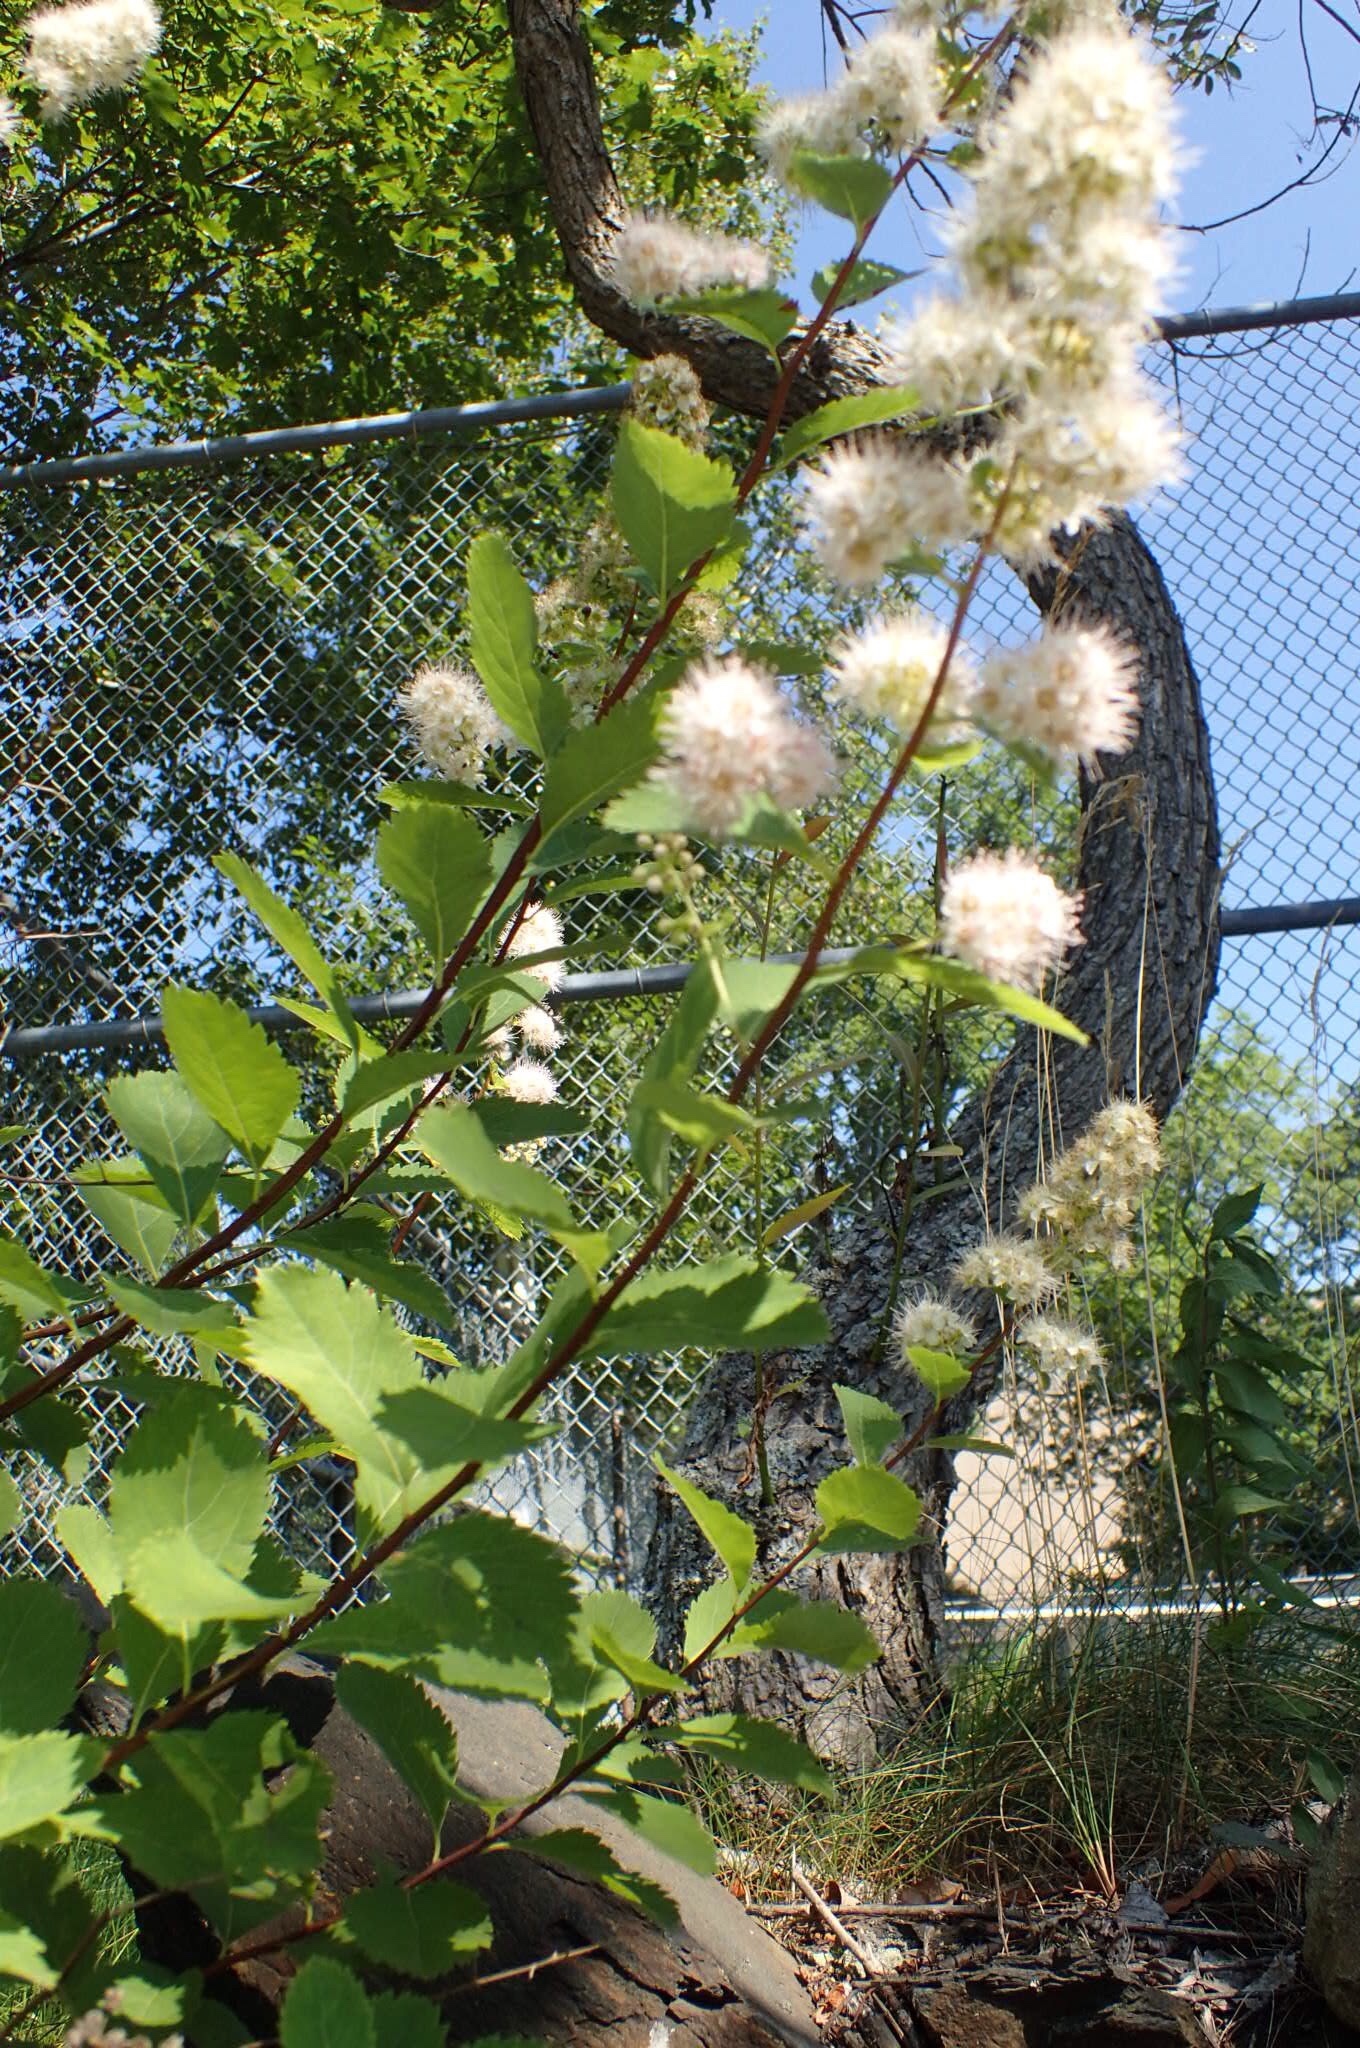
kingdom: Plantae
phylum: Tracheophyta
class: Magnoliopsida
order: Rosales
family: Rosaceae
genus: Spiraea
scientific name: Spiraea alba
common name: Pale bridewort
